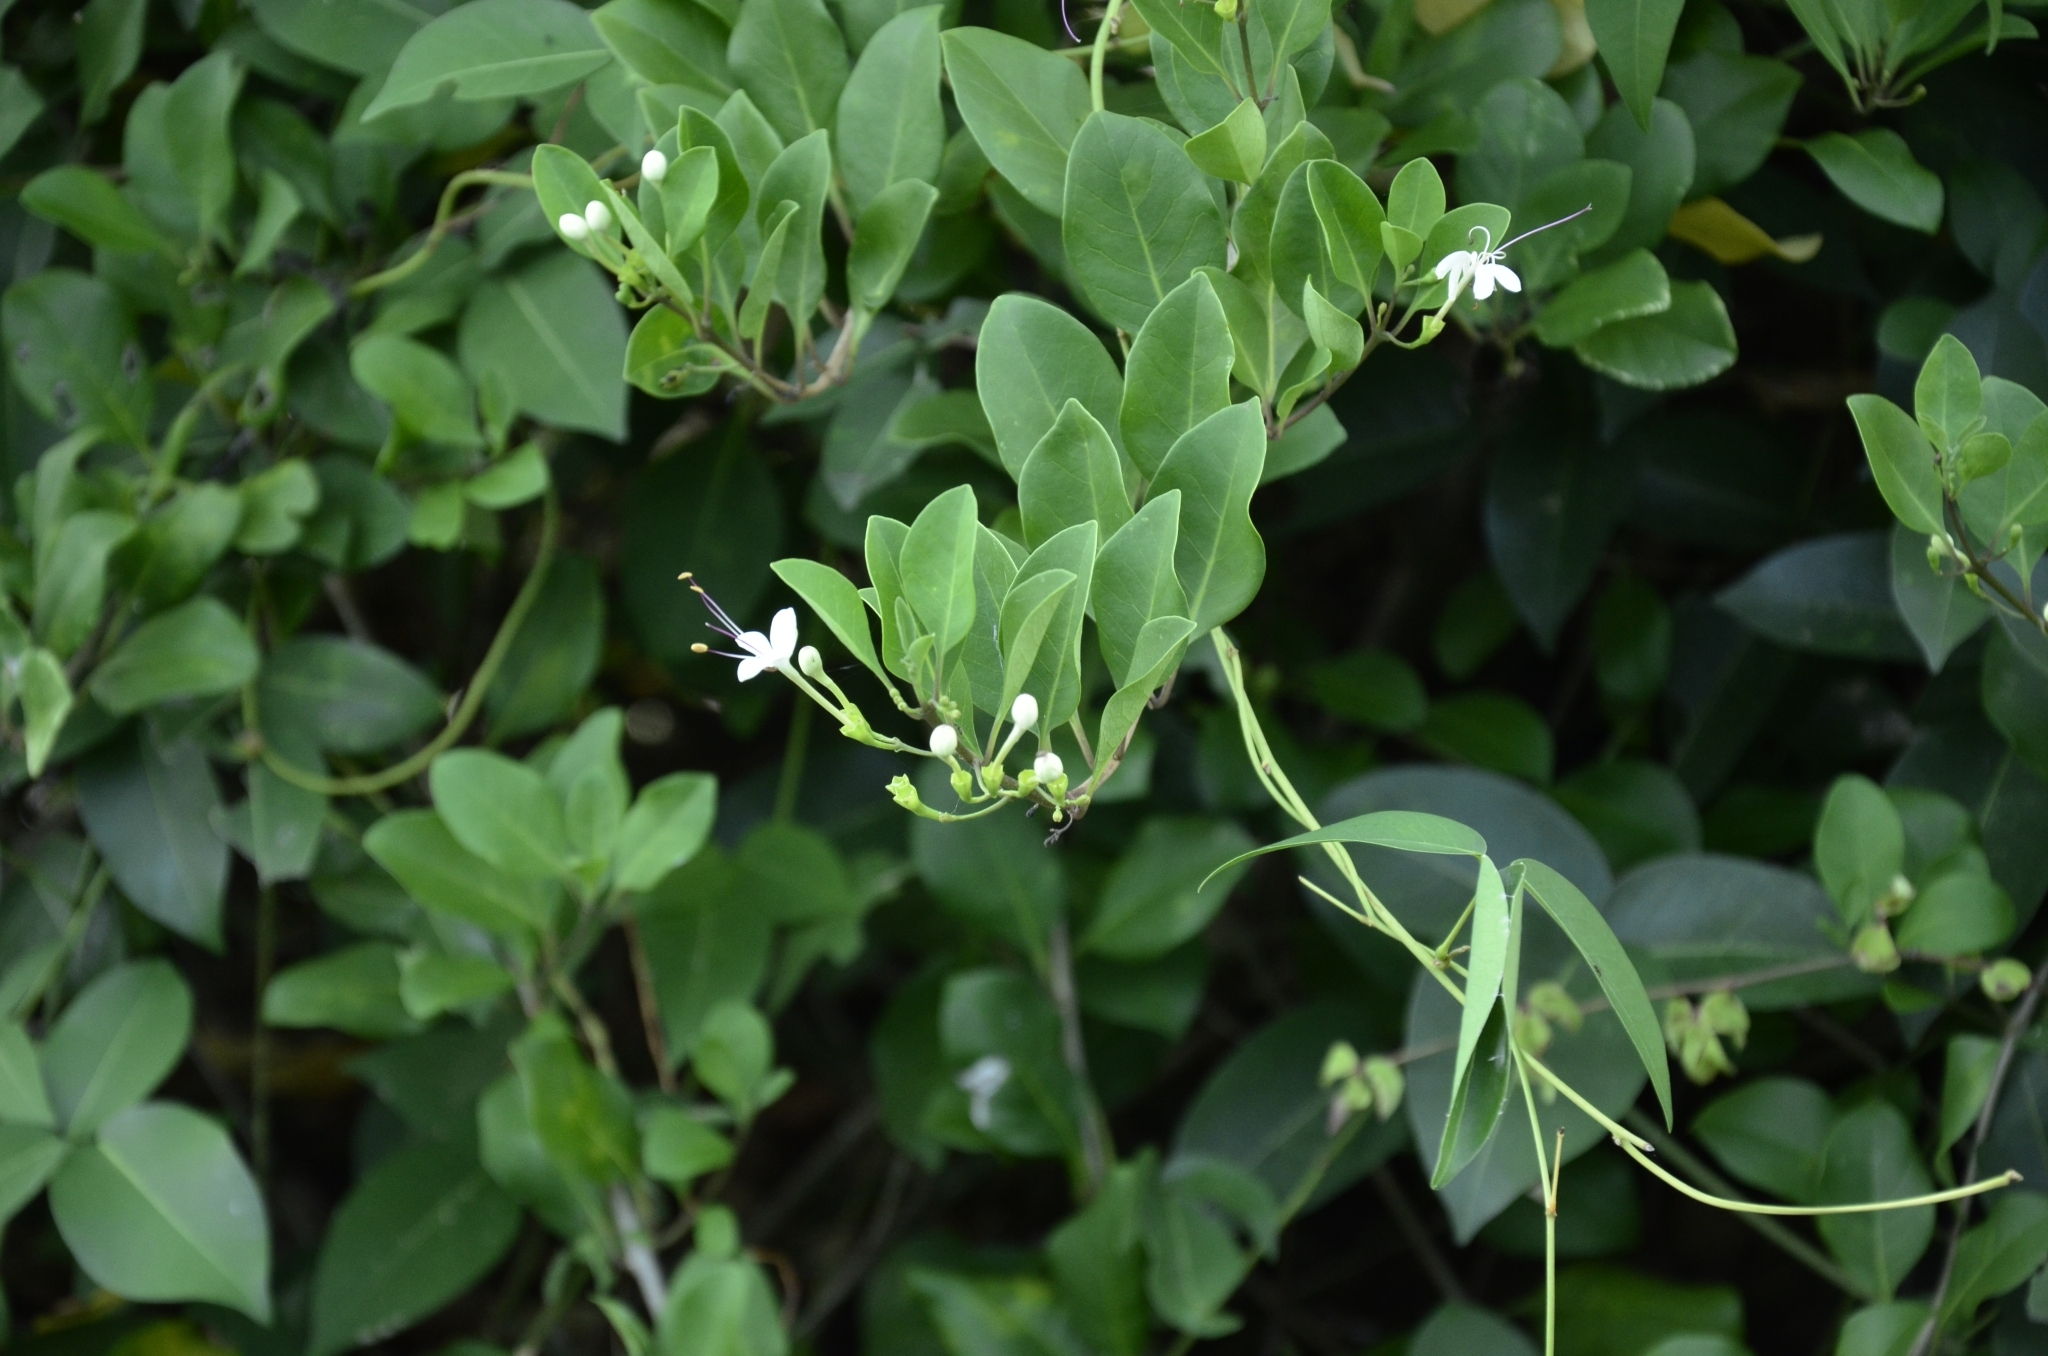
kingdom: Plantae
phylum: Tracheophyta
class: Magnoliopsida
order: Lamiales
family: Lamiaceae
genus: Volkameria
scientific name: Volkameria inermis
